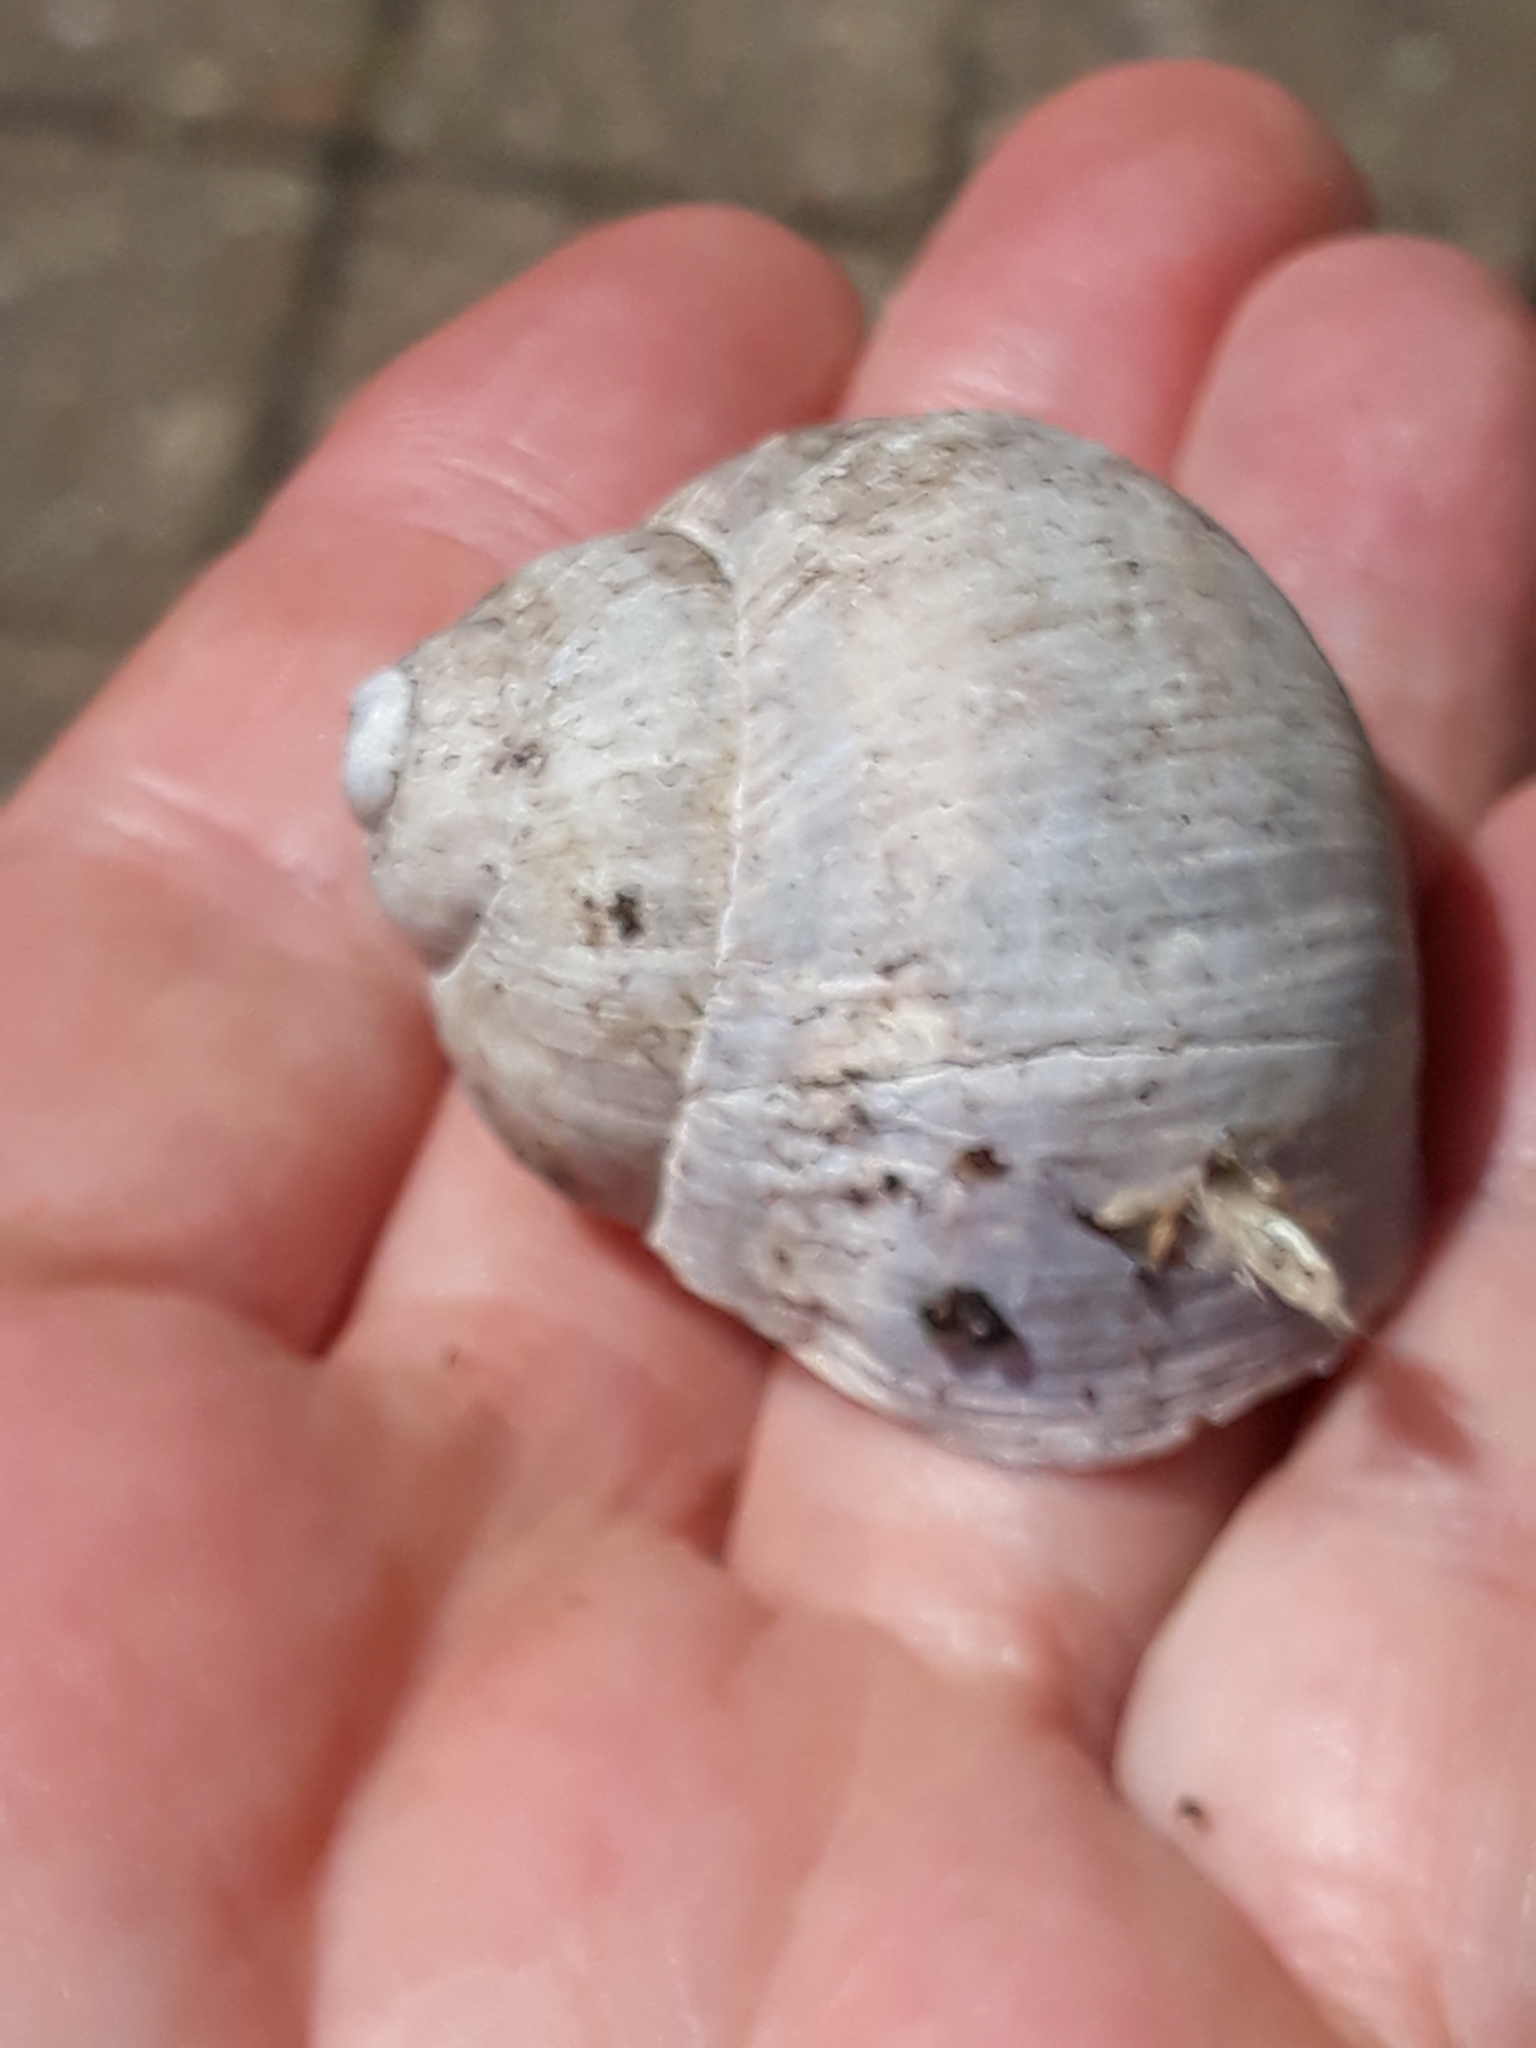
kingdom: Animalia
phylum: Mollusca
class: Gastropoda
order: Stylommatophora
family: Helicidae
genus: Helix
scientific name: Helix pomatia
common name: Roman snail
